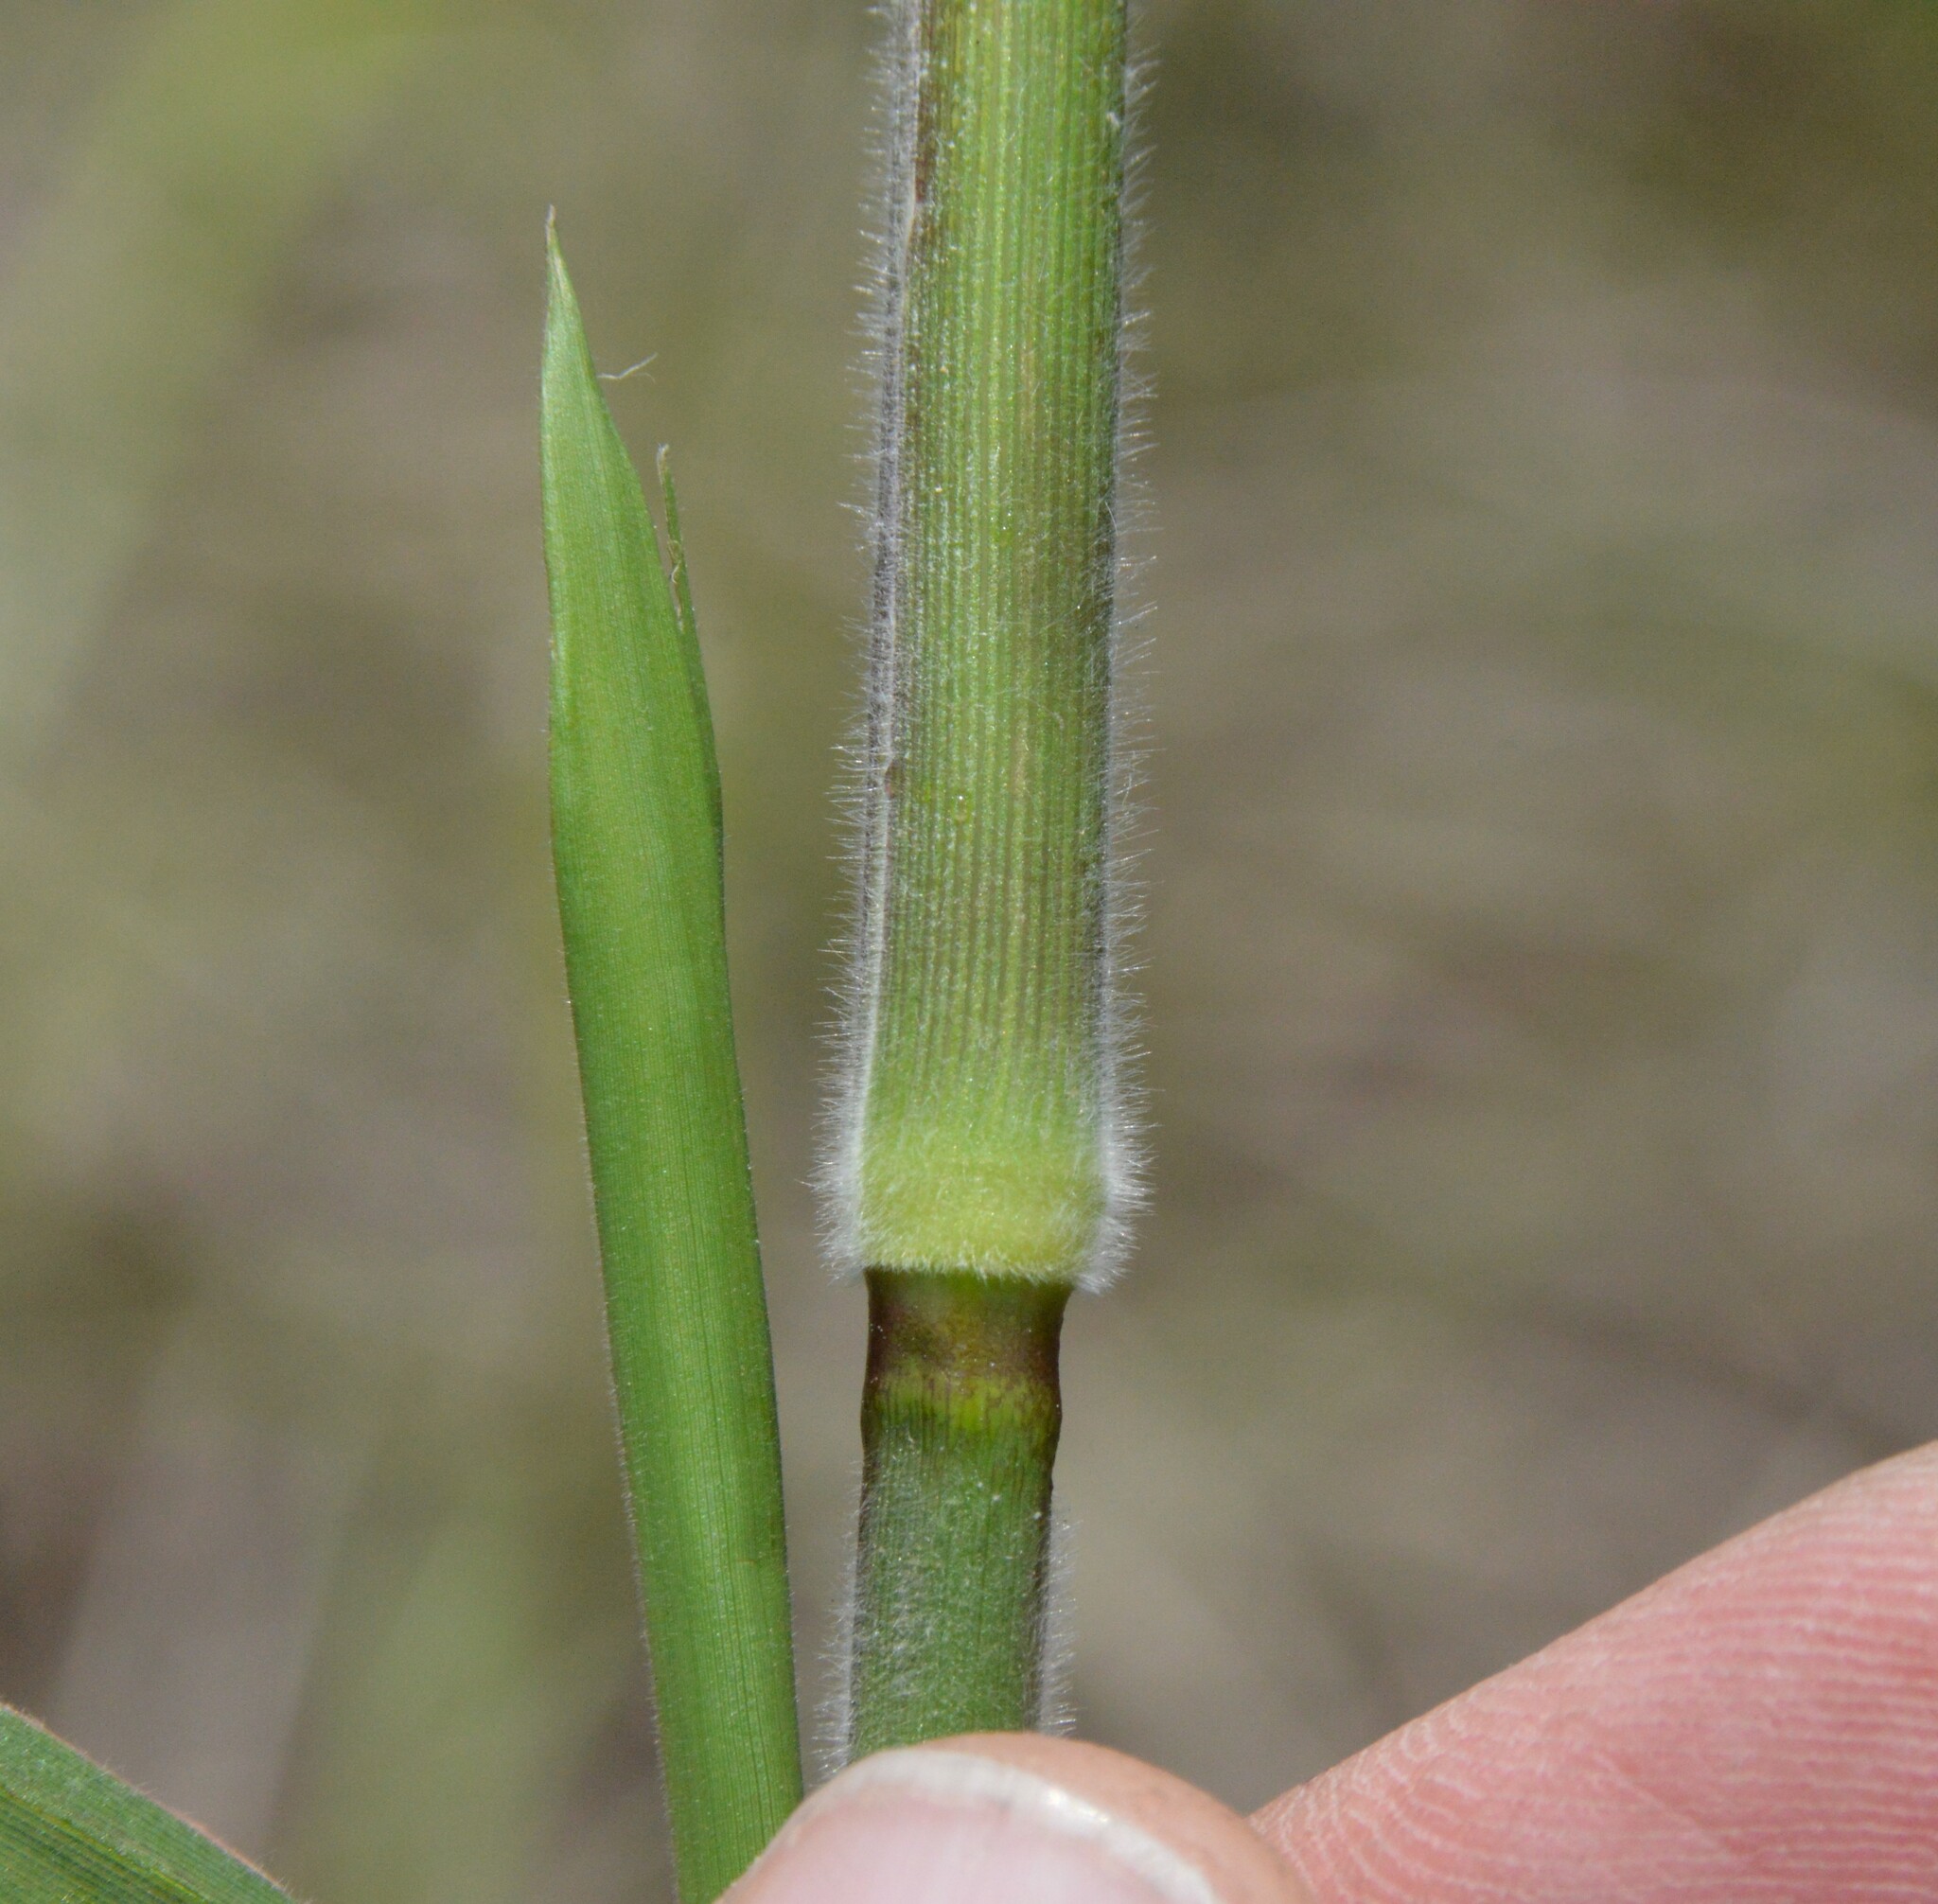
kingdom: Plantae
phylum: Tracheophyta
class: Liliopsida
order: Poales
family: Poaceae
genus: Dichanthelium
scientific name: Dichanthelium scoparium
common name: Velvety panic grass
